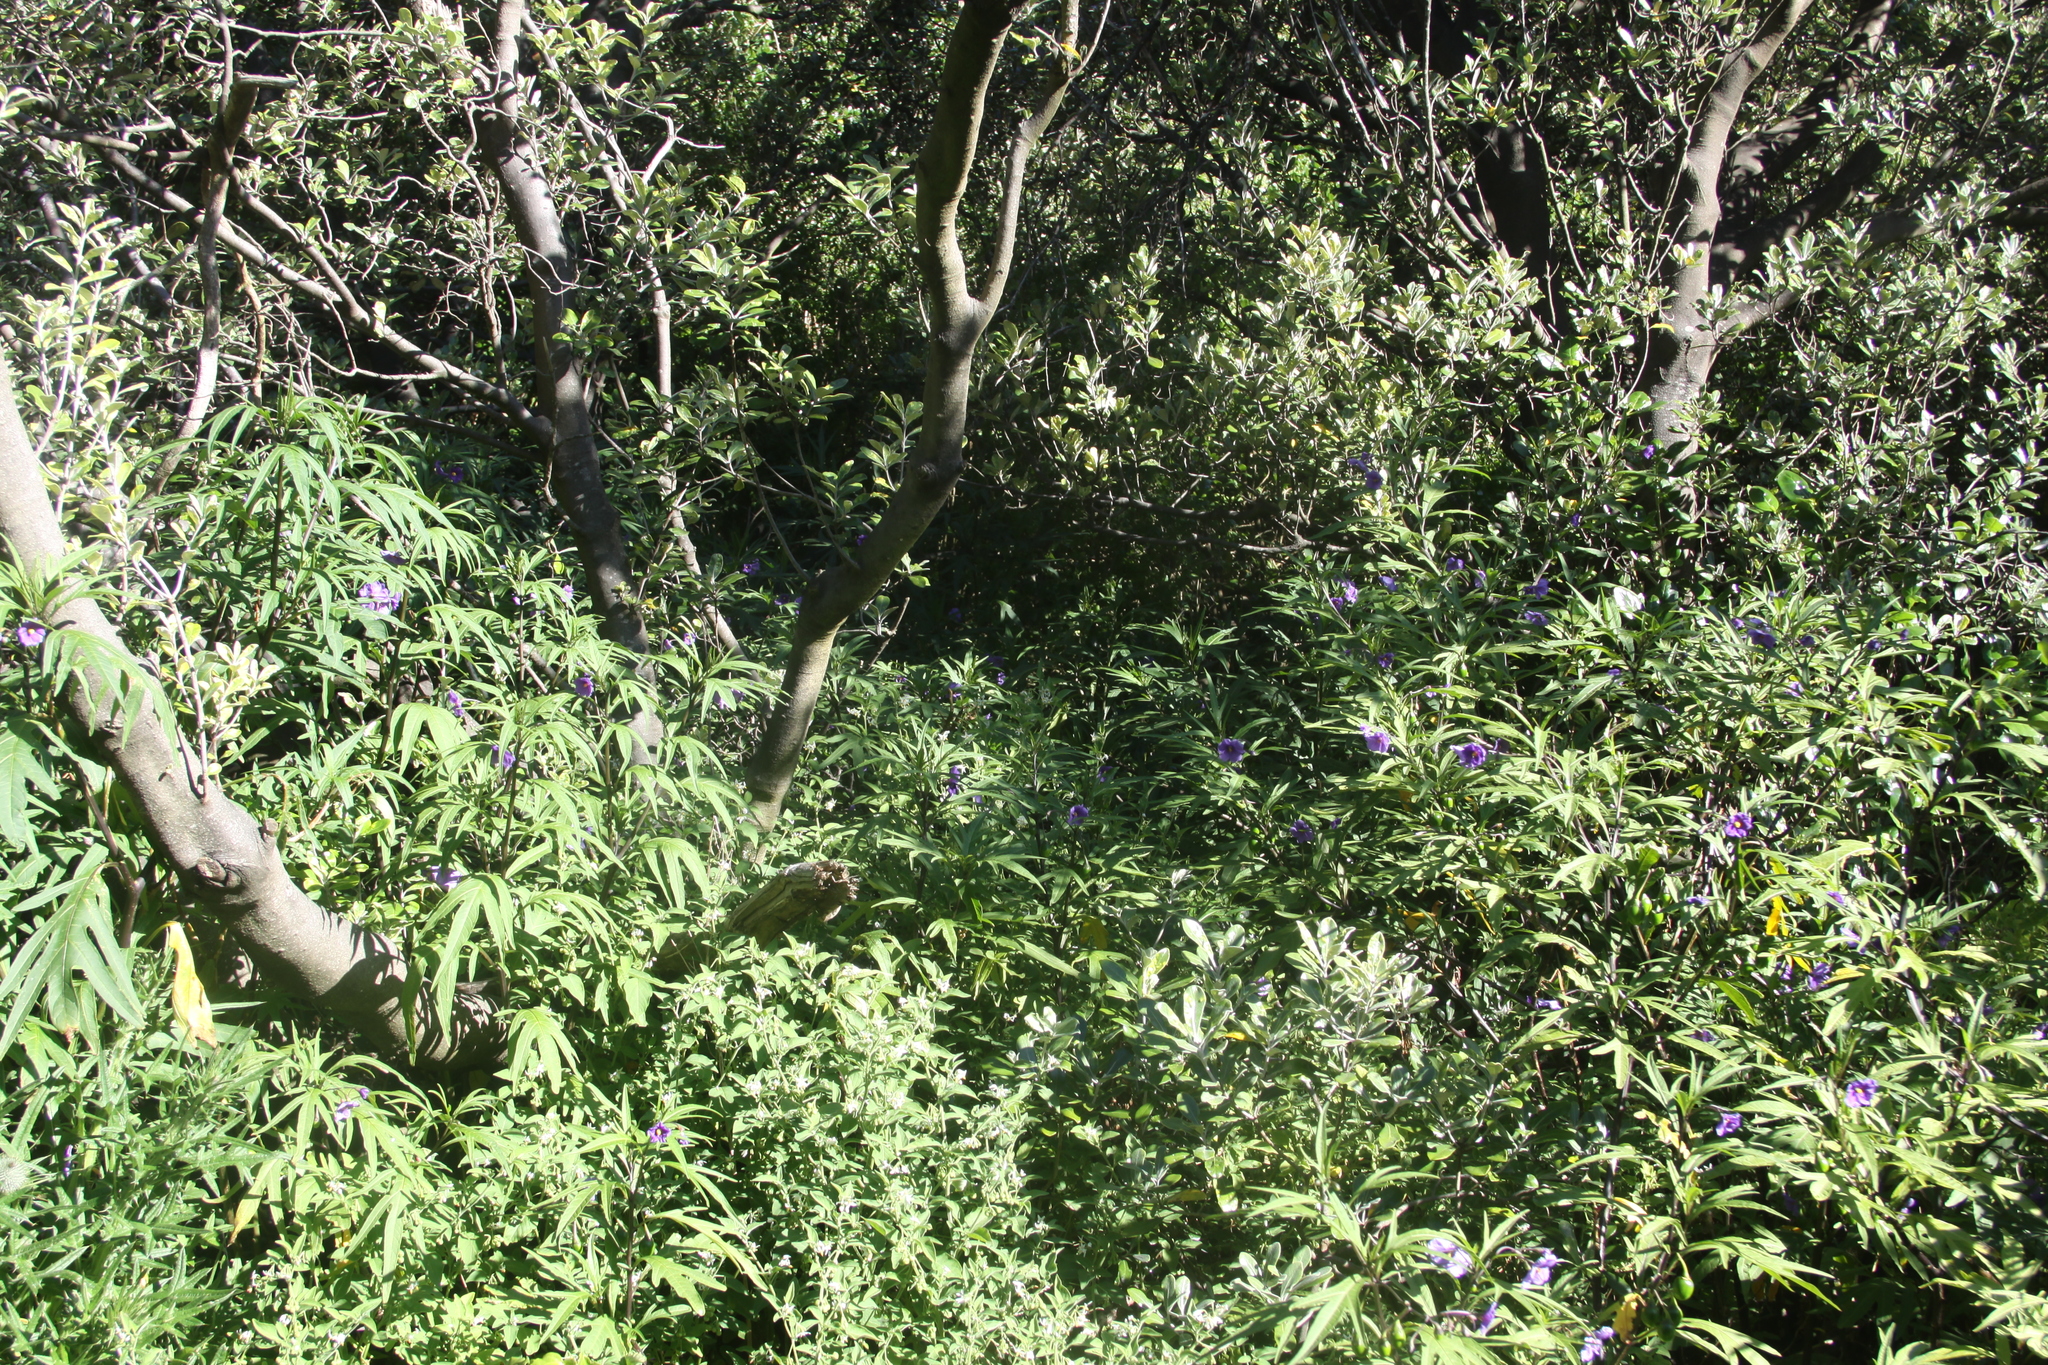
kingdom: Plantae
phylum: Tracheophyta
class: Magnoliopsida
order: Solanales
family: Solanaceae
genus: Solanum
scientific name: Solanum laciniatum
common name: Kangaroo-apple
